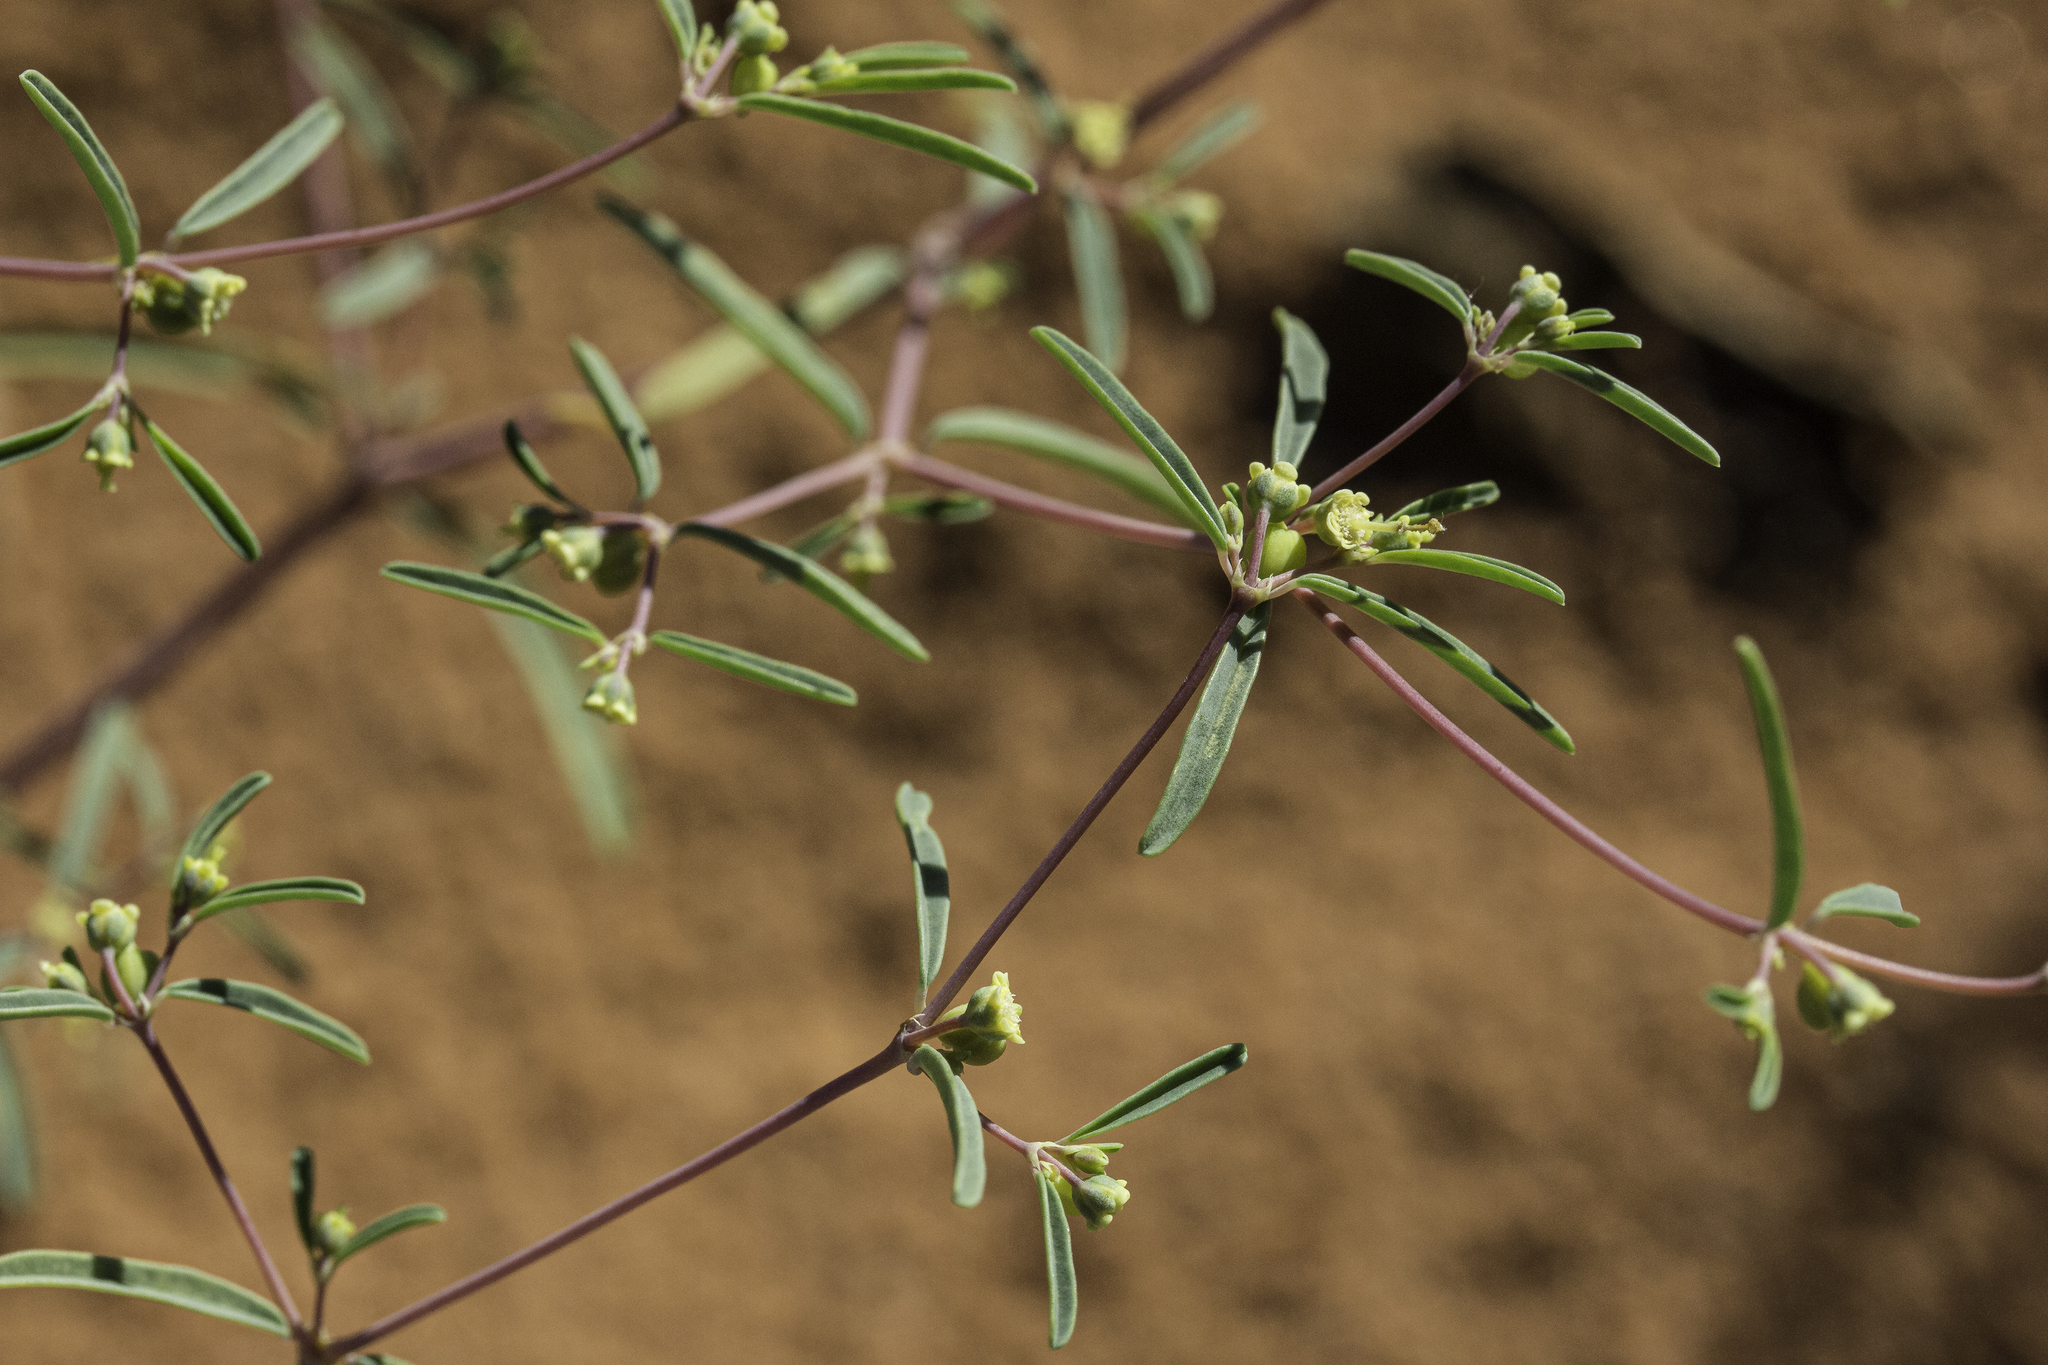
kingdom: Plantae
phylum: Tracheophyta
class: Magnoliopsida
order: Malpighiales
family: Euphorbiaceae
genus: Euphorbia
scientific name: Euphorbia parryi
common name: Dune spurge
